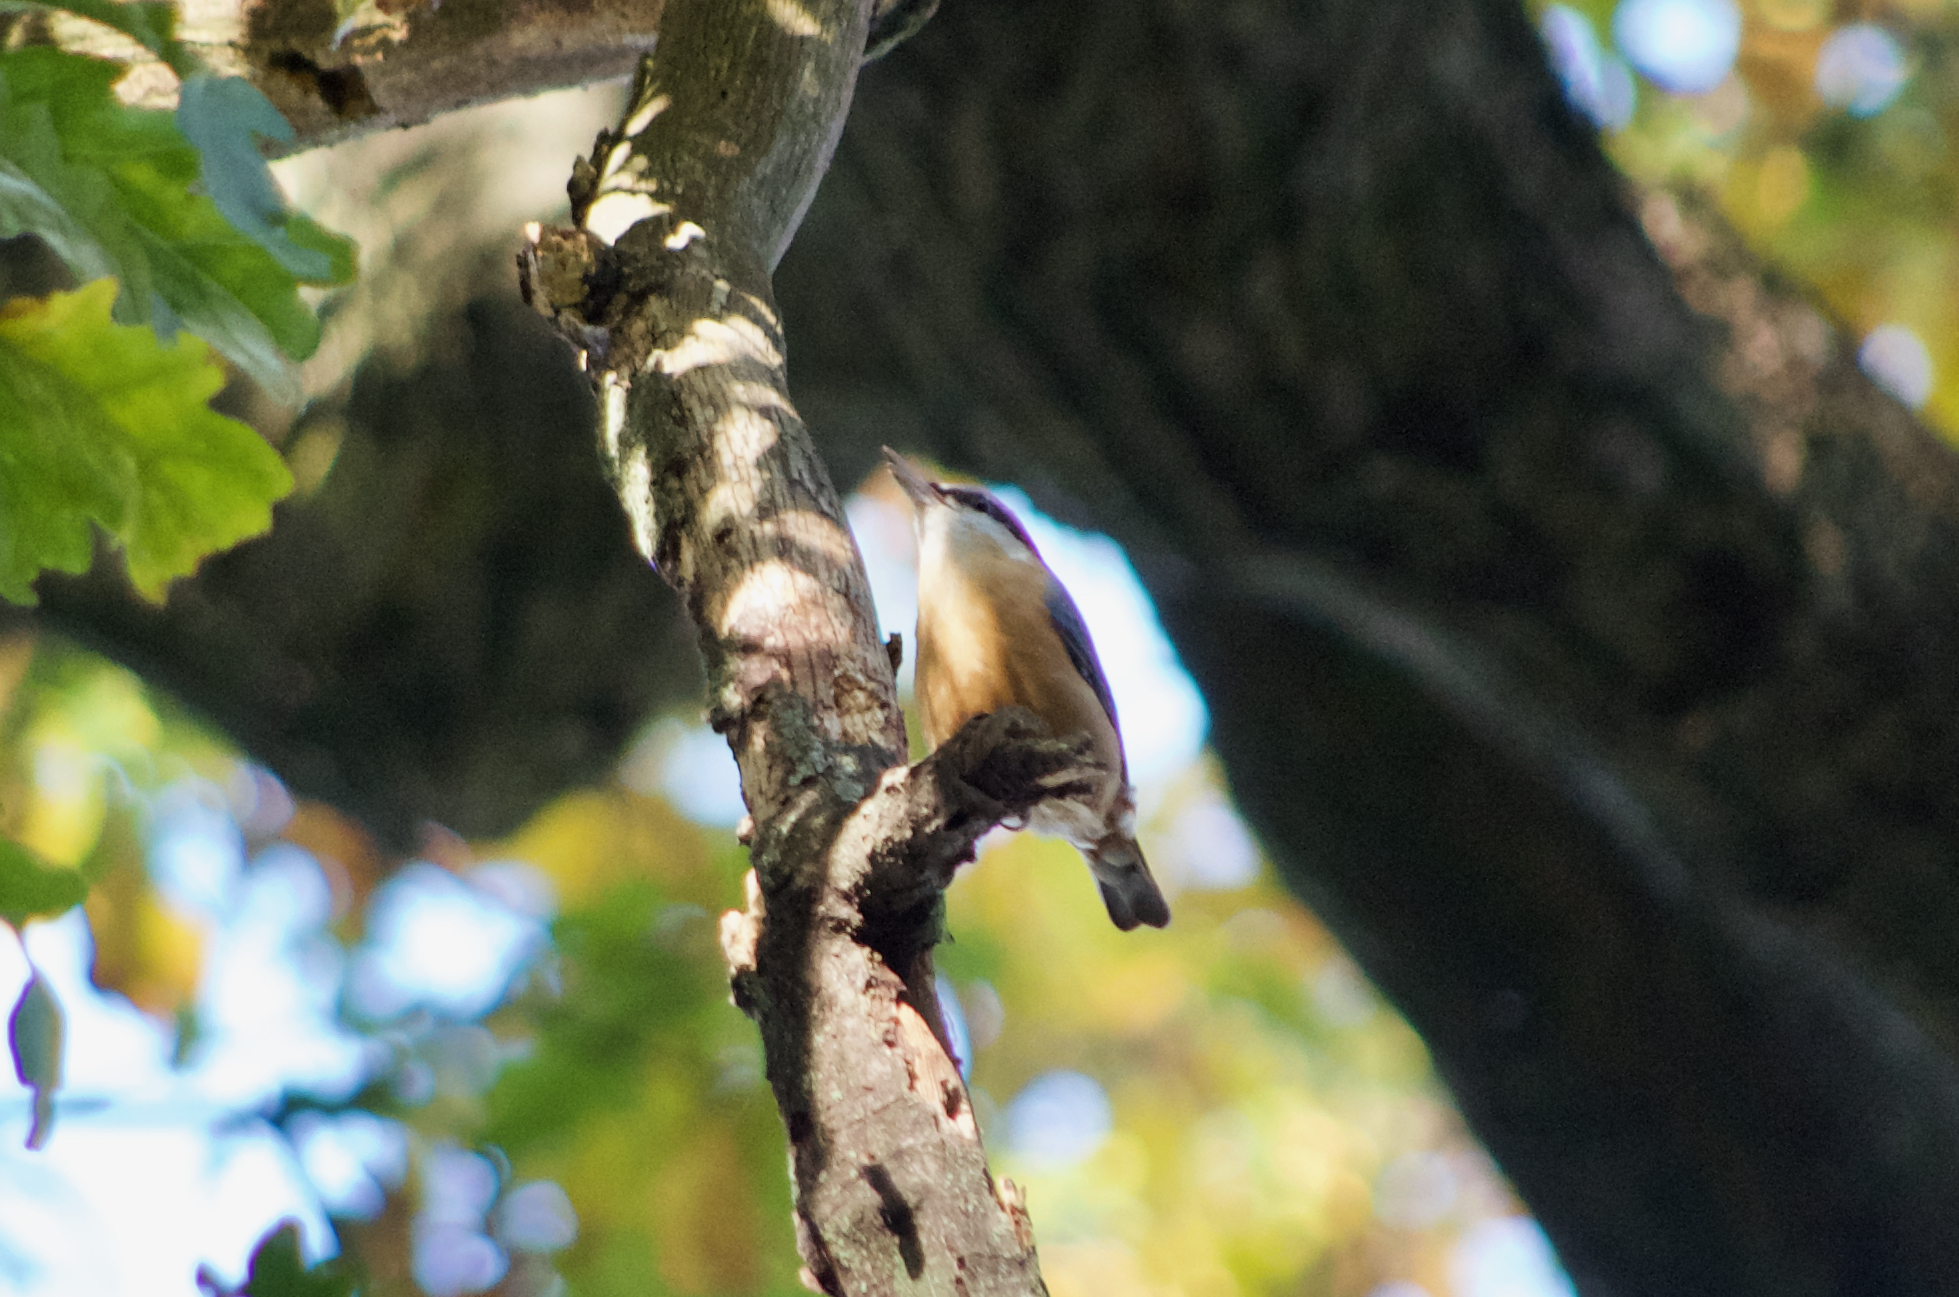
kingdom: Animalia
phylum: Chordata
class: Aves
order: Passeriformes
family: Sittidae
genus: Sitta
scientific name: Sitta europaea
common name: Eurasian nuthatch
